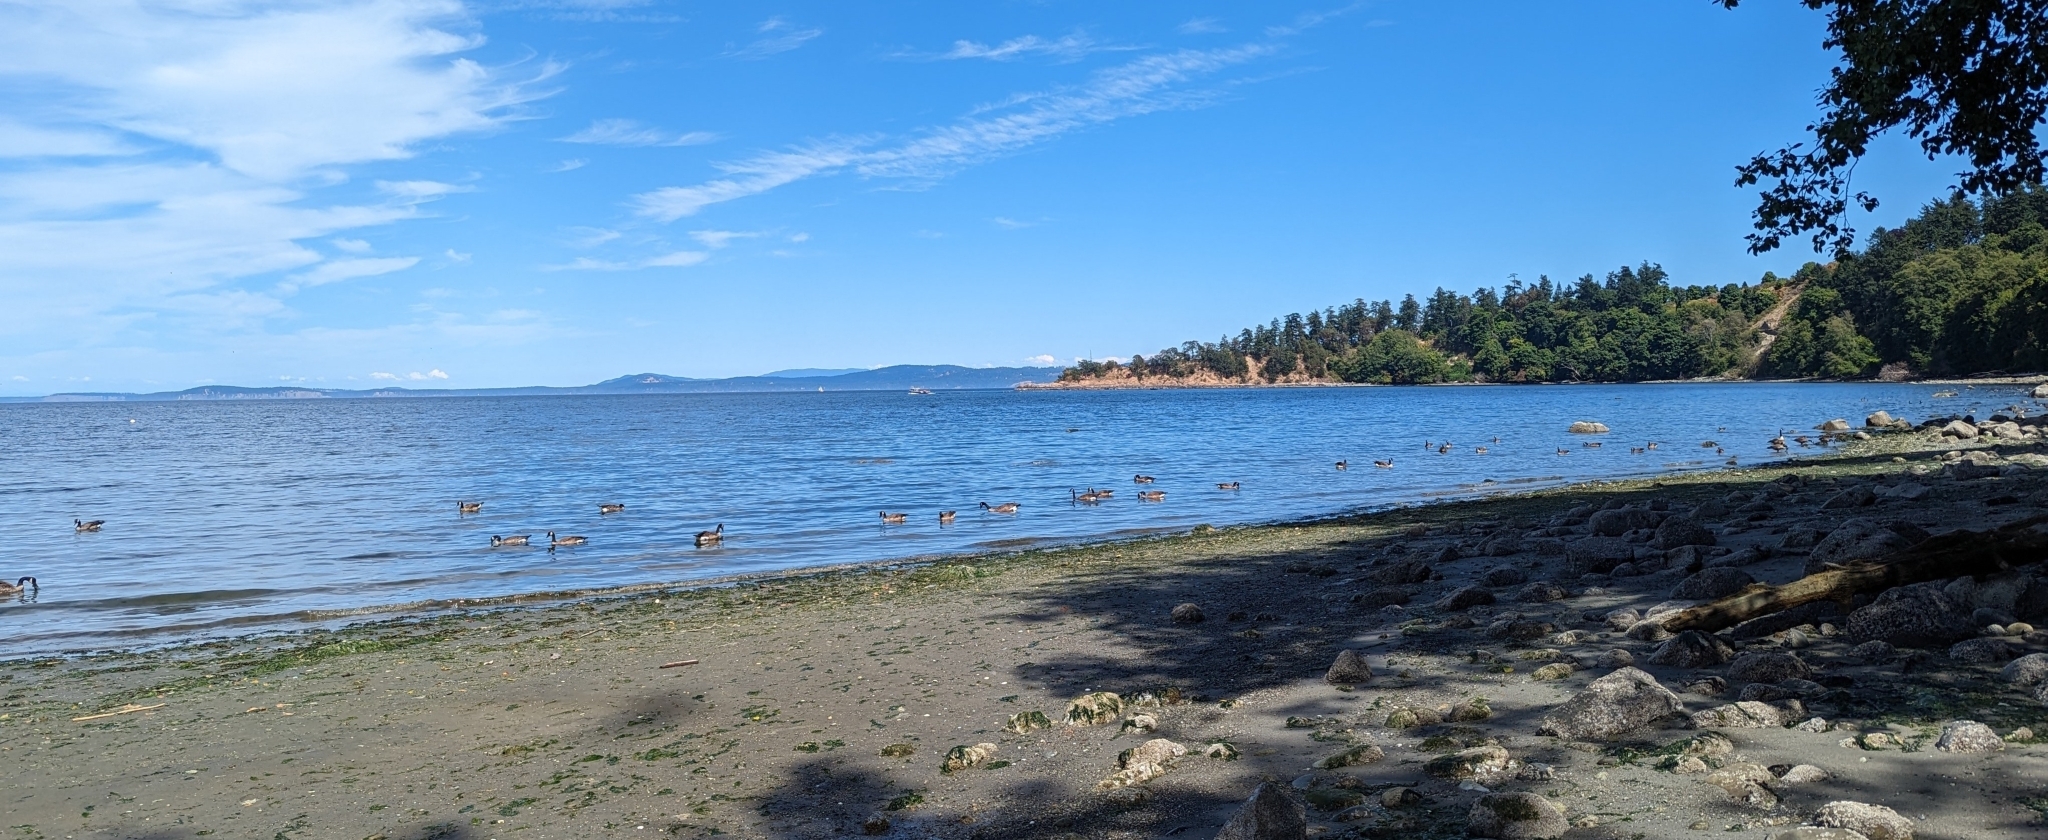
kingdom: Animalia
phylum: Chordata
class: Aves
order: Anseriformes
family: Anatidae
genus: Branta
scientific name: Branta canadensis
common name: Canada goose
